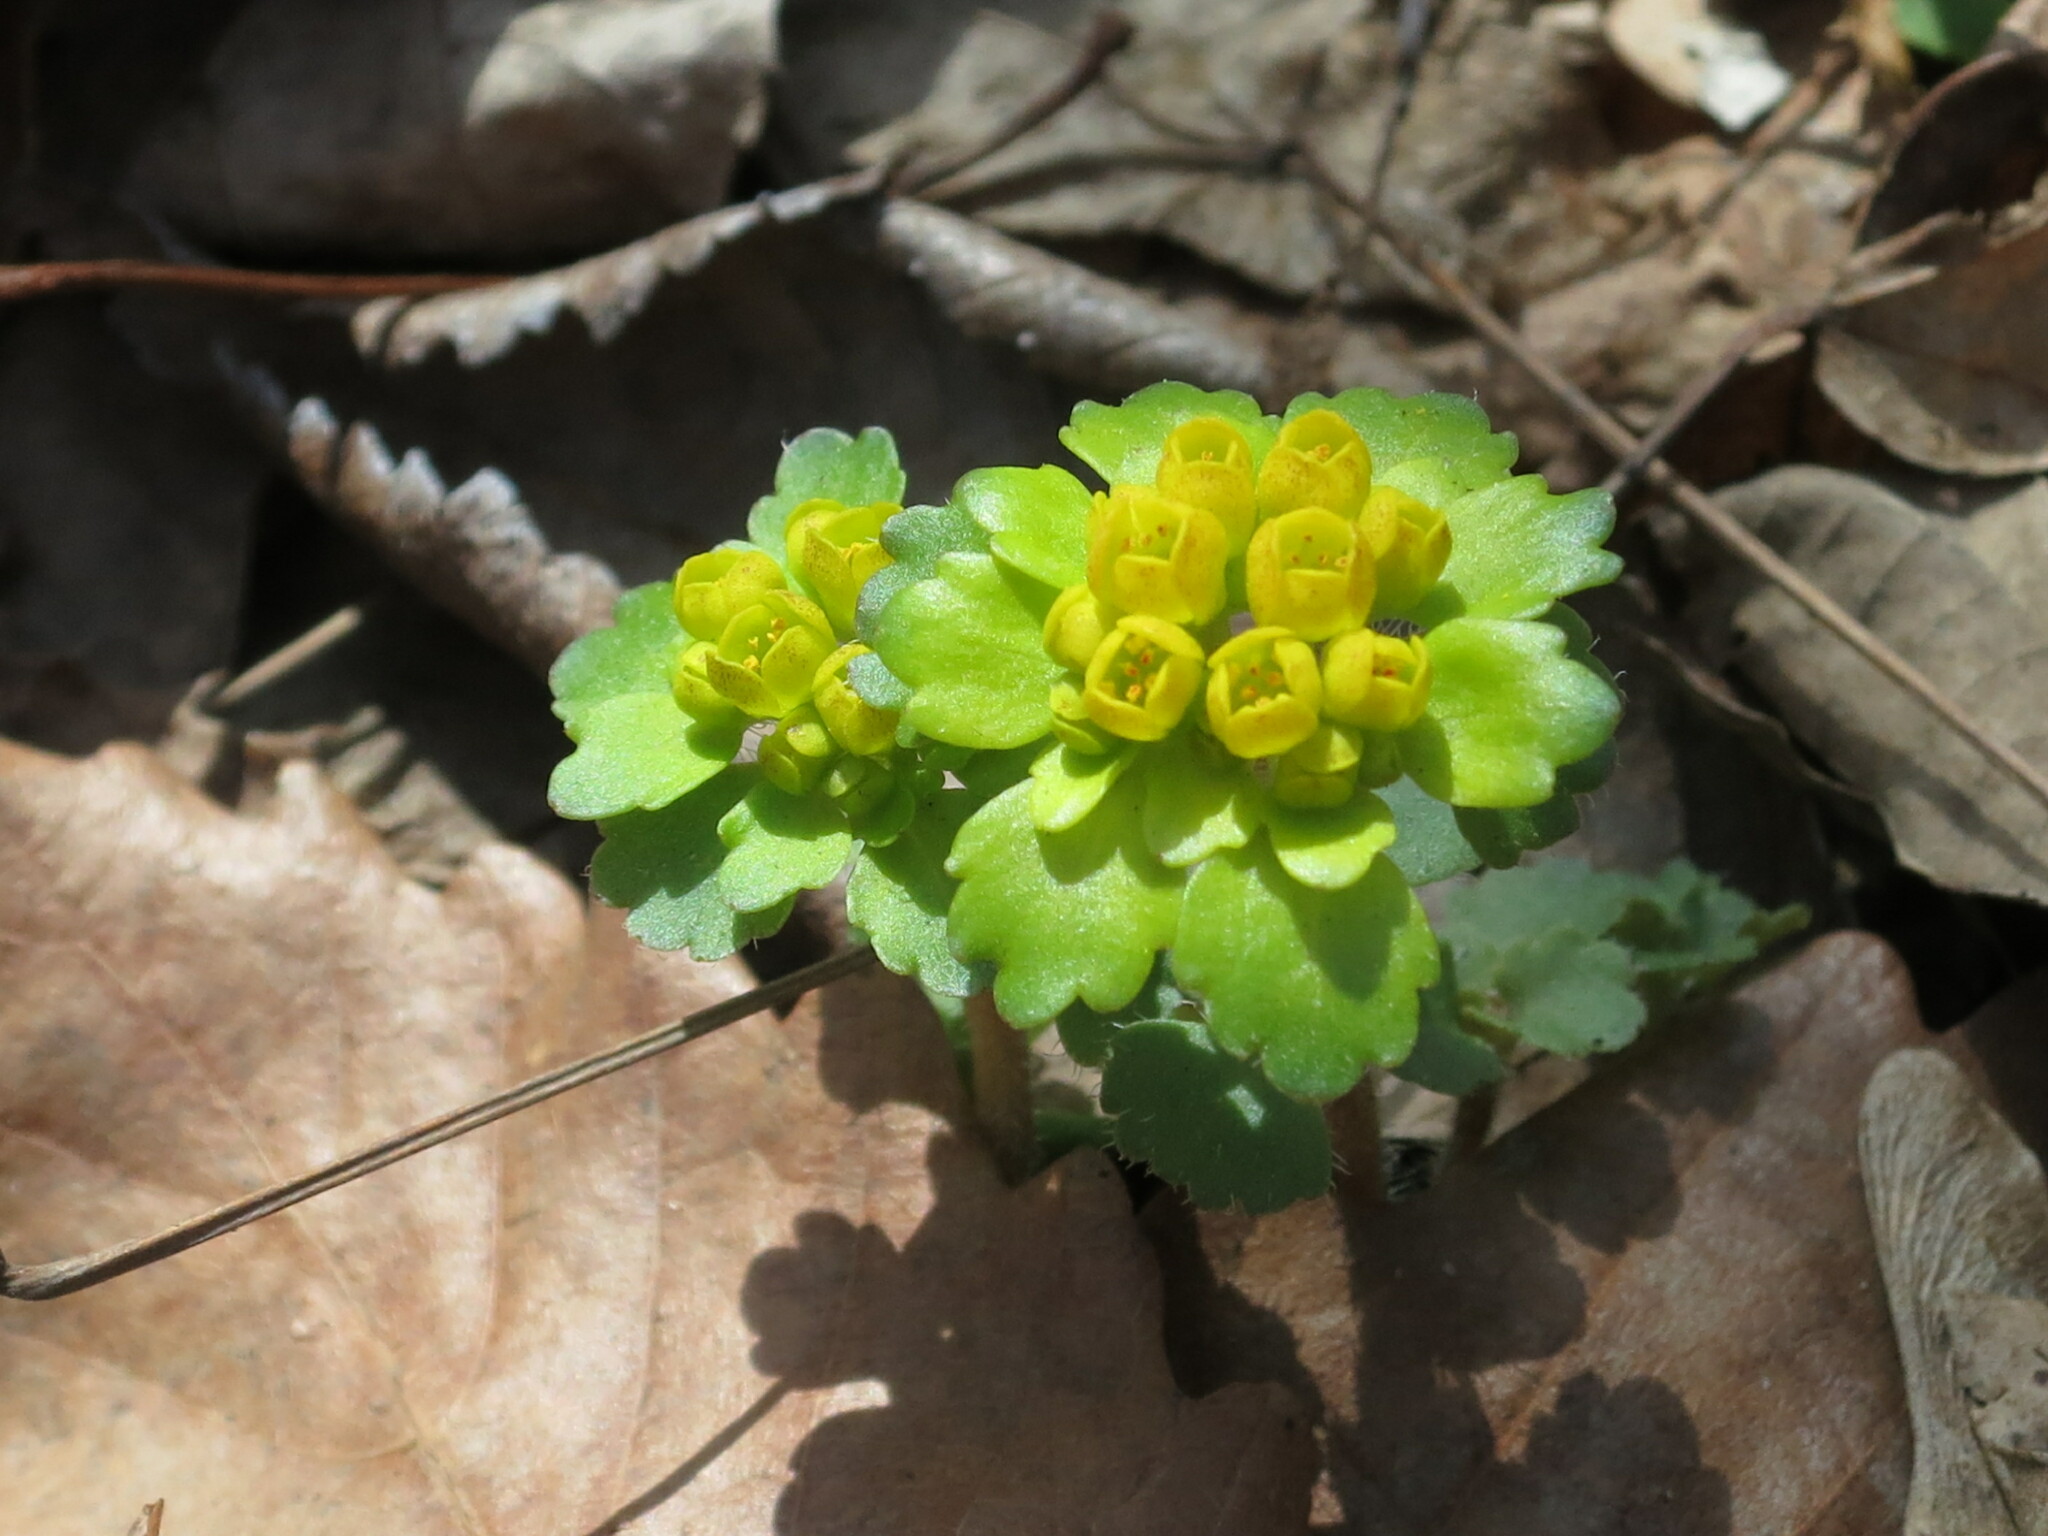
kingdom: Plantae
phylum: Tracheophyta
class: Magnoliopsida
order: Saxifragales
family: Saxifragaceae
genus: Chrysosplenium
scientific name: Chrysosplenium pilosum
